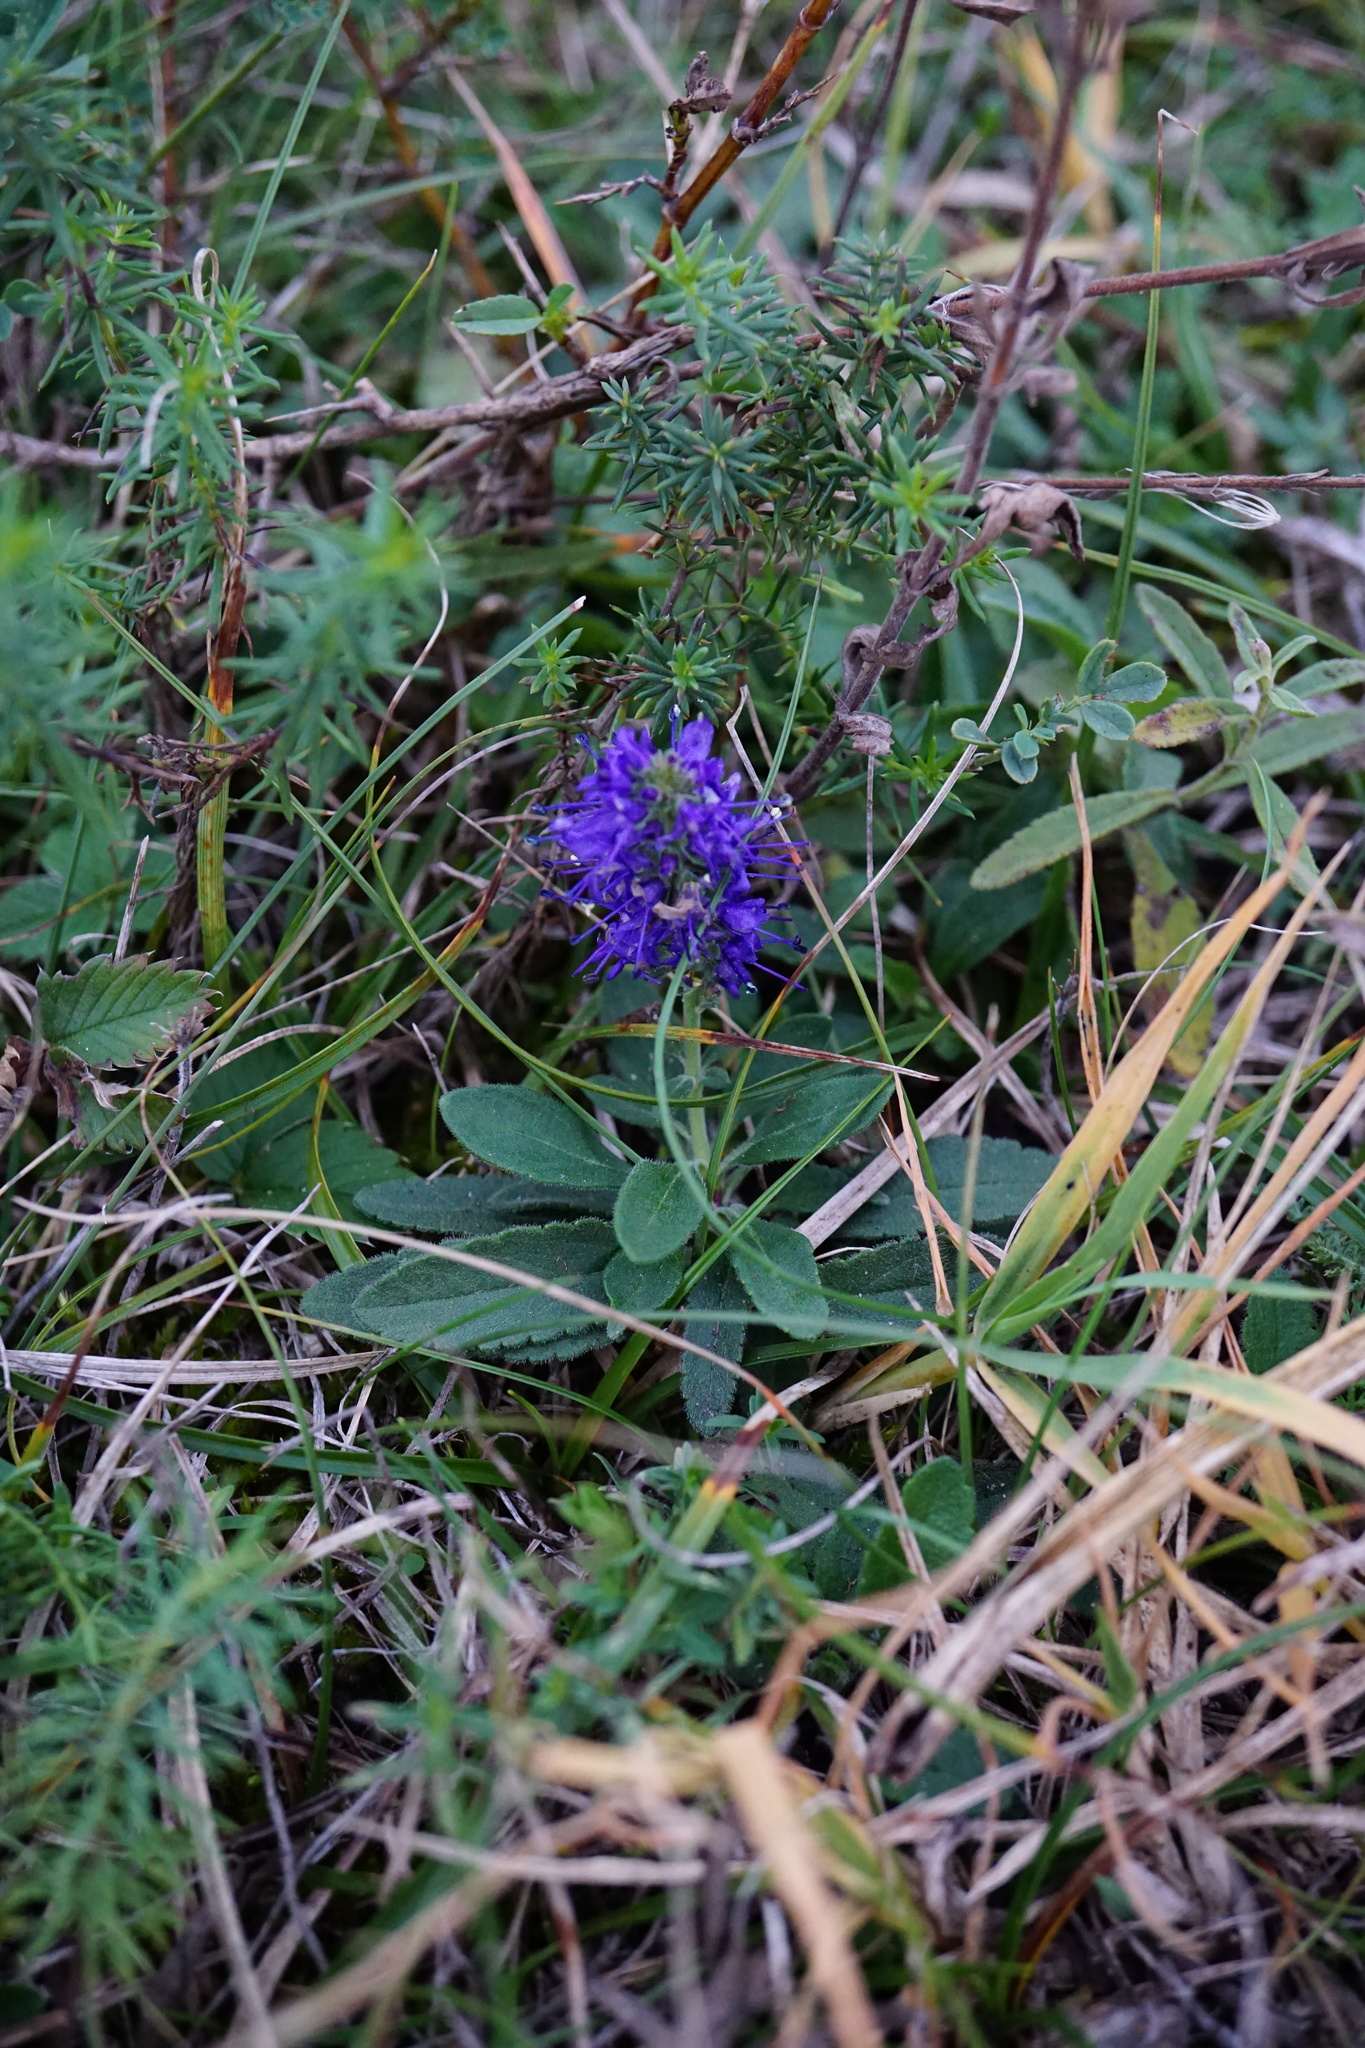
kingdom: Plantae
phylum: Tracheophyta
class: Magnoliopsida
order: Lamiales
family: Plantaginaceae
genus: Veronica
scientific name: Veronica spicata
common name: Spiked speedwell
